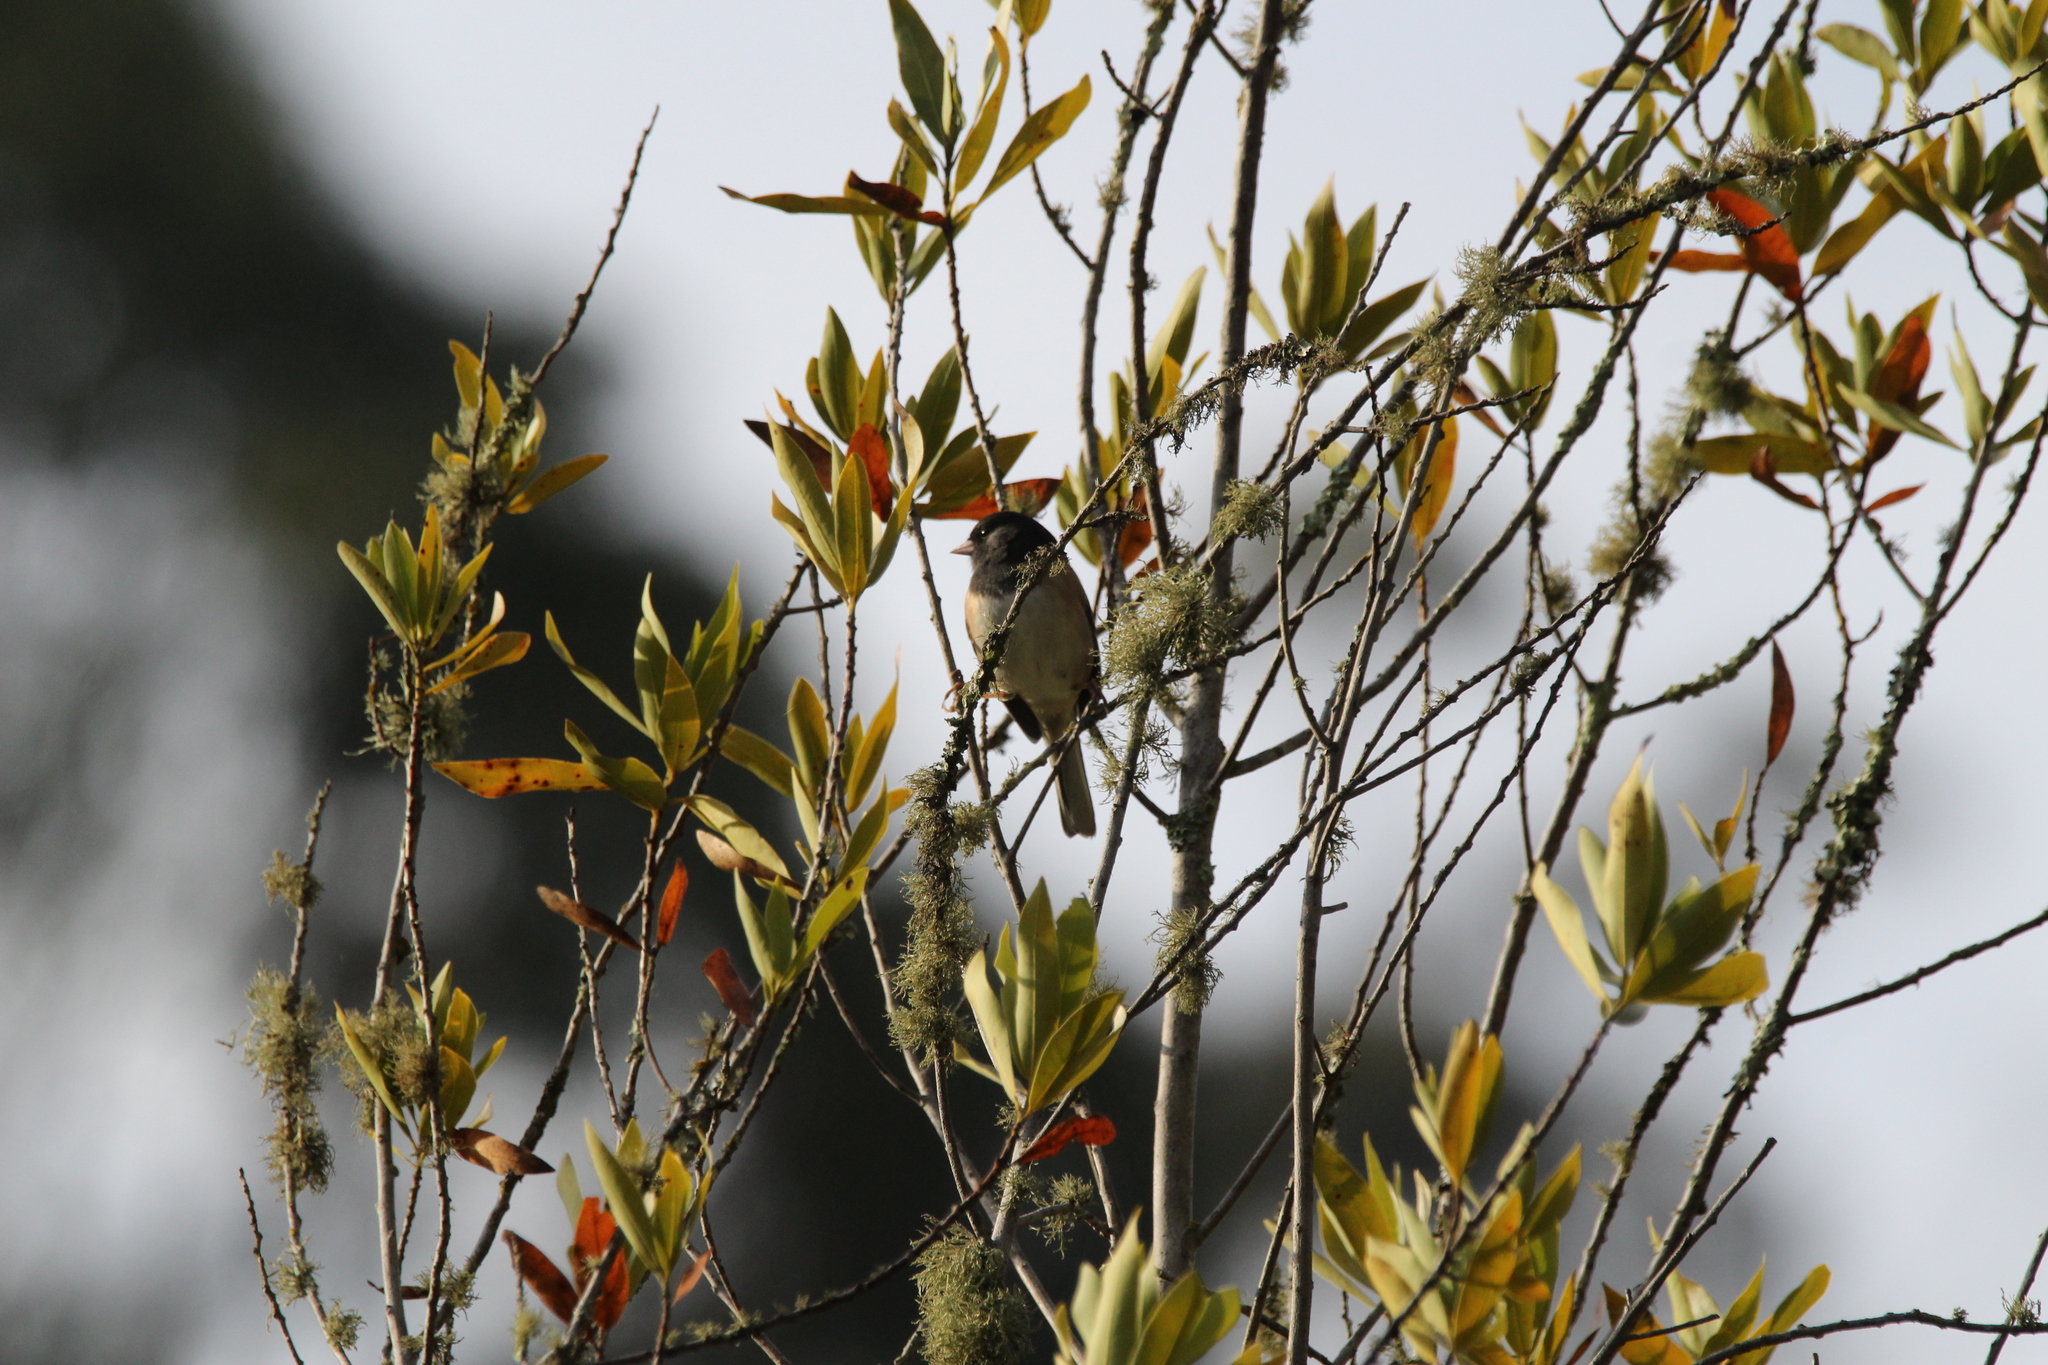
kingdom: Animalia
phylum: Chordata
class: Aves
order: Passeriformes
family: Passerellidae
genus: Junco
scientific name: Junco hyemalis
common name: Dark-eyed junco
